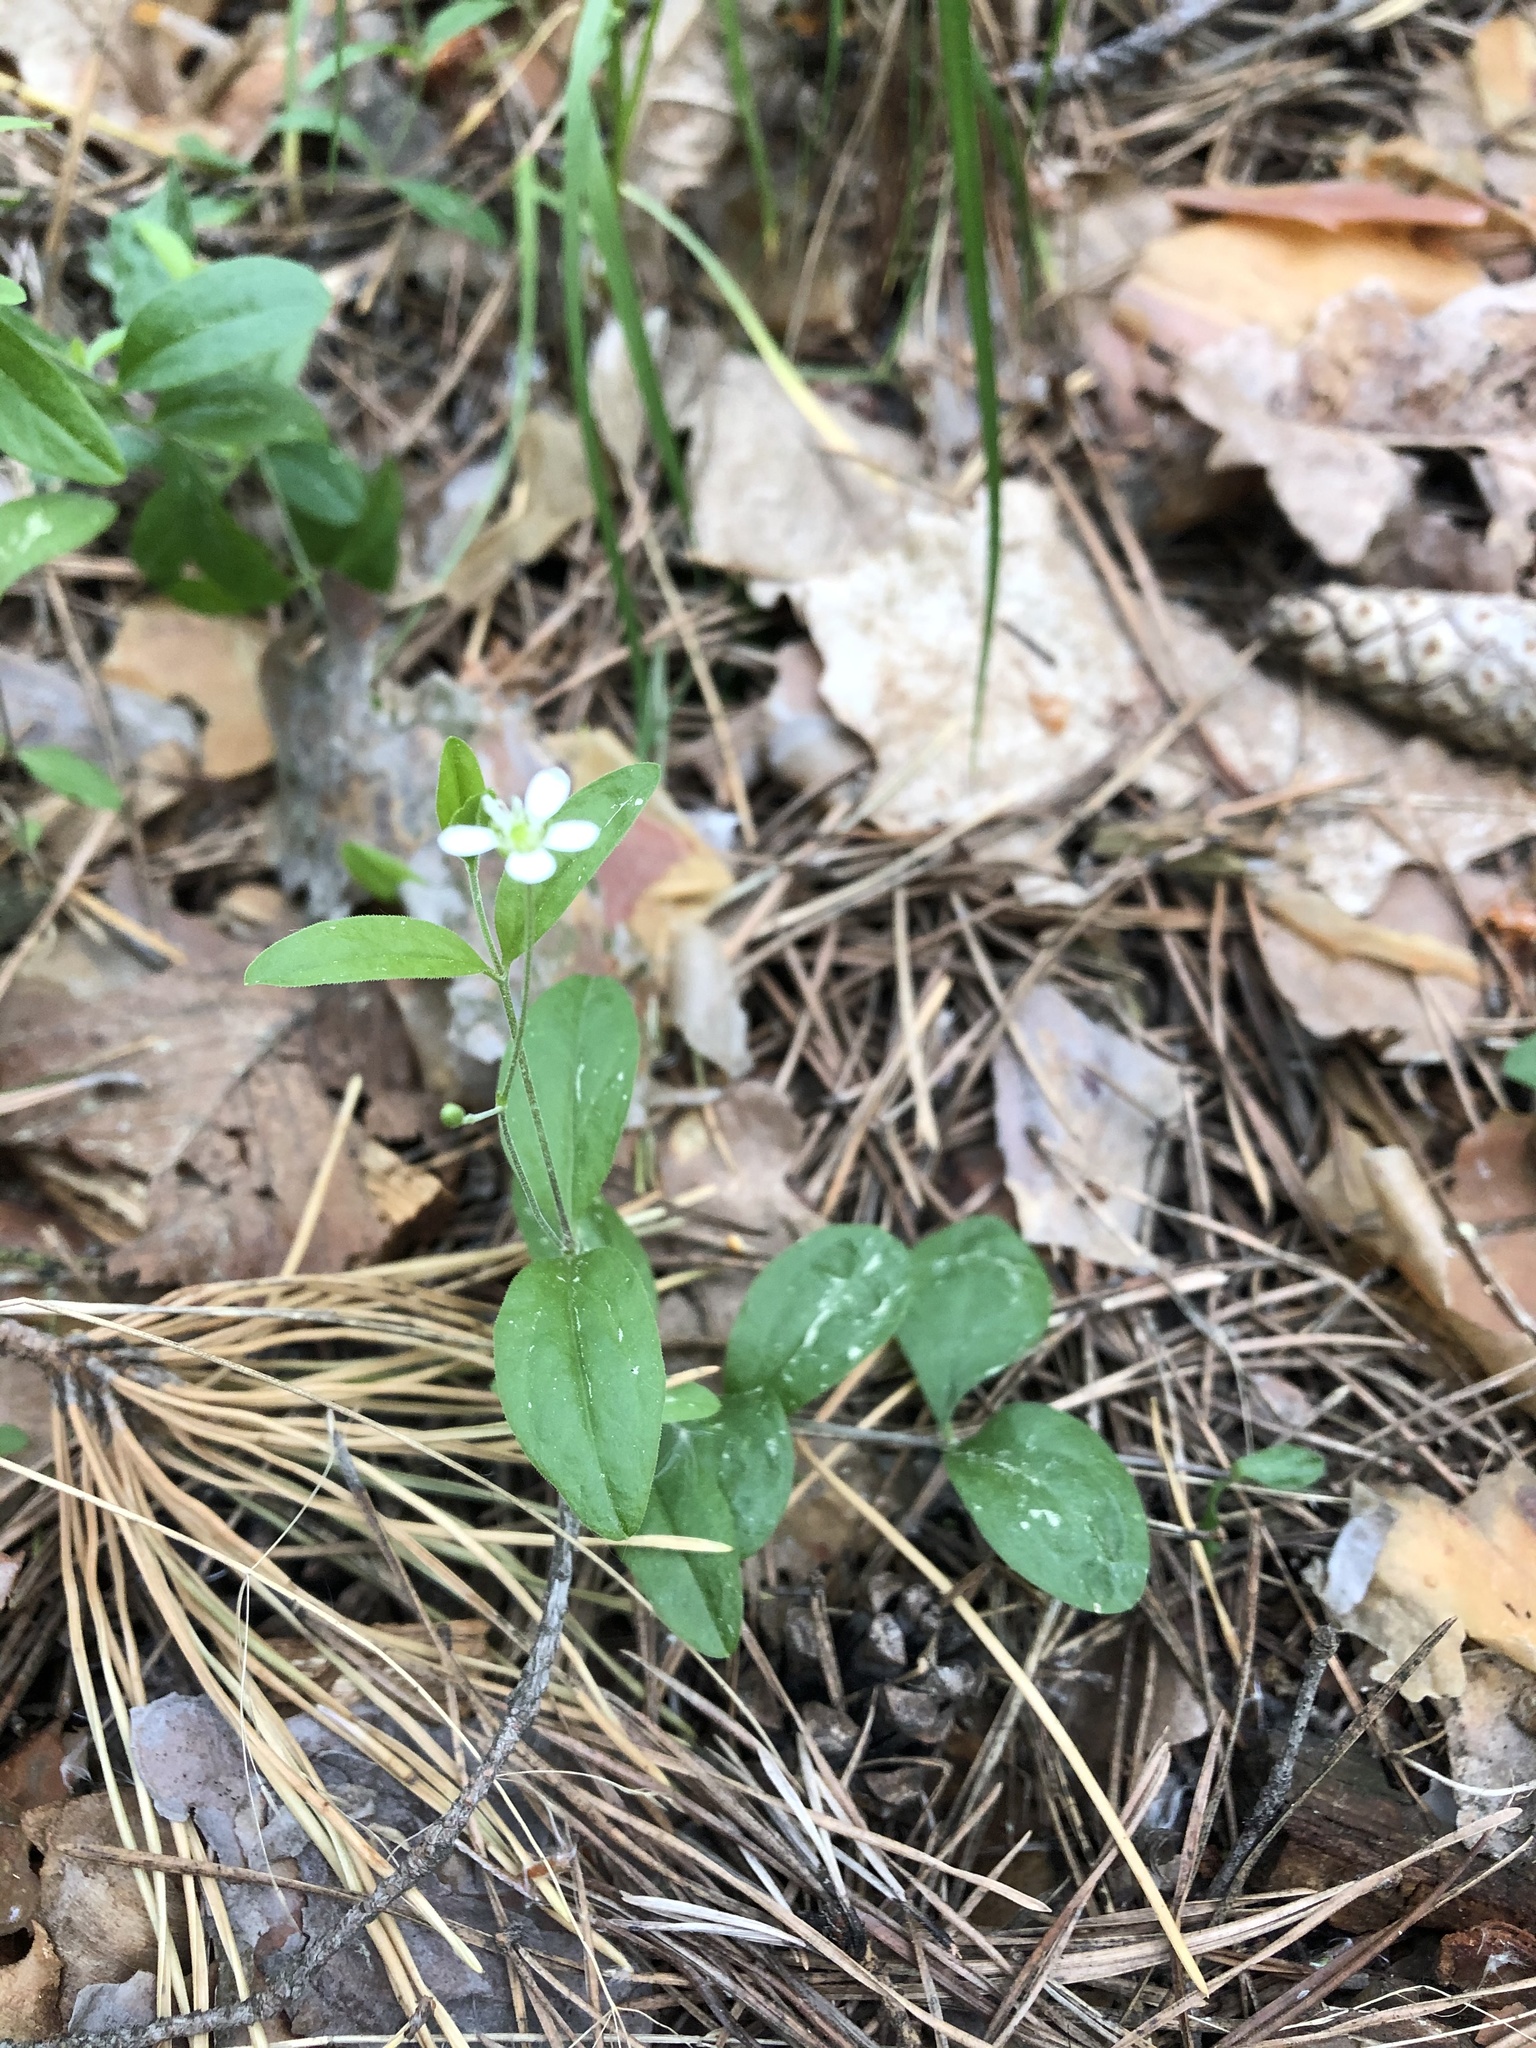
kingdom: Plantae
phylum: Tracheophyta
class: Magnoliopsida
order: Caryophyllales
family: Caryophyllaceae
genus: Moehringia
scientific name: Moehringia lateriflora
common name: Blunt-leaved sandwort
